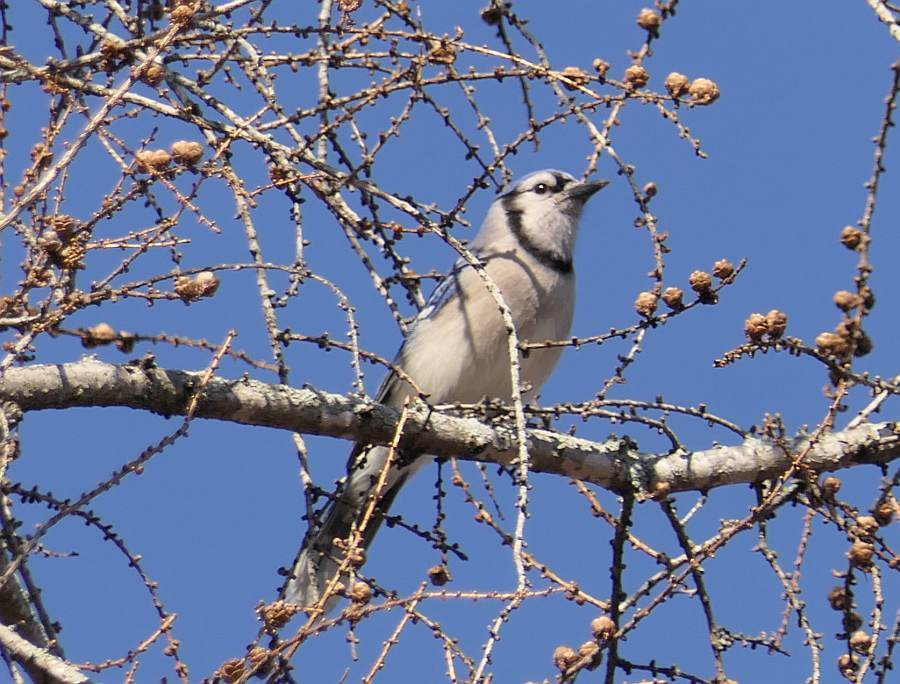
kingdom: Animalia
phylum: Chordata
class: Aves
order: Passeriformes
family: Corvidae
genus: Cyanocitta
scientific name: Cyanocitta cristata
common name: Blue jay
